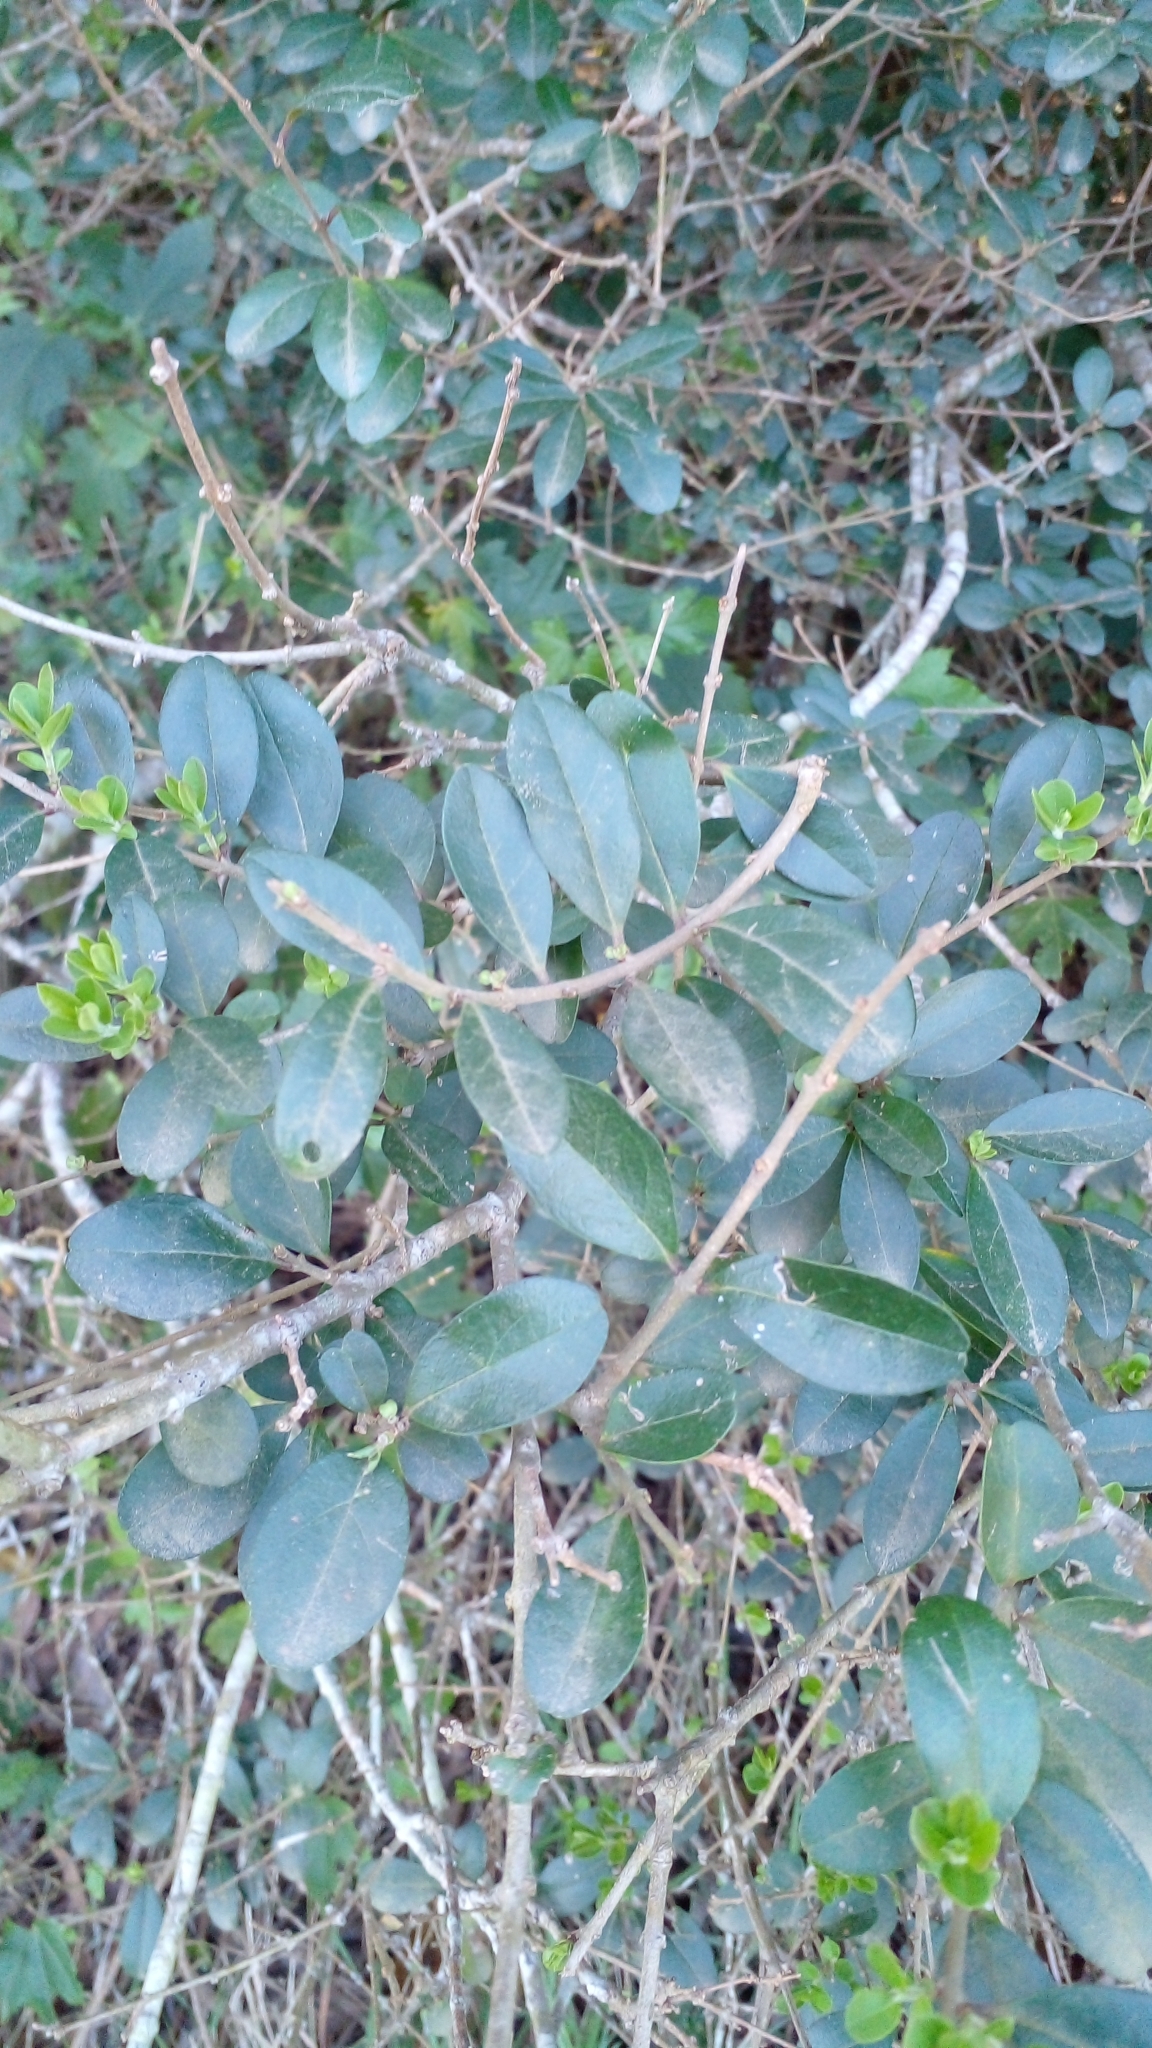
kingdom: Plantae
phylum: Tracheophyta
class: Magnoliopsida
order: Lamiales
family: Oleaceae
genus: Ligustrum
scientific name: Ligustrum sinense
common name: Chinese privet
